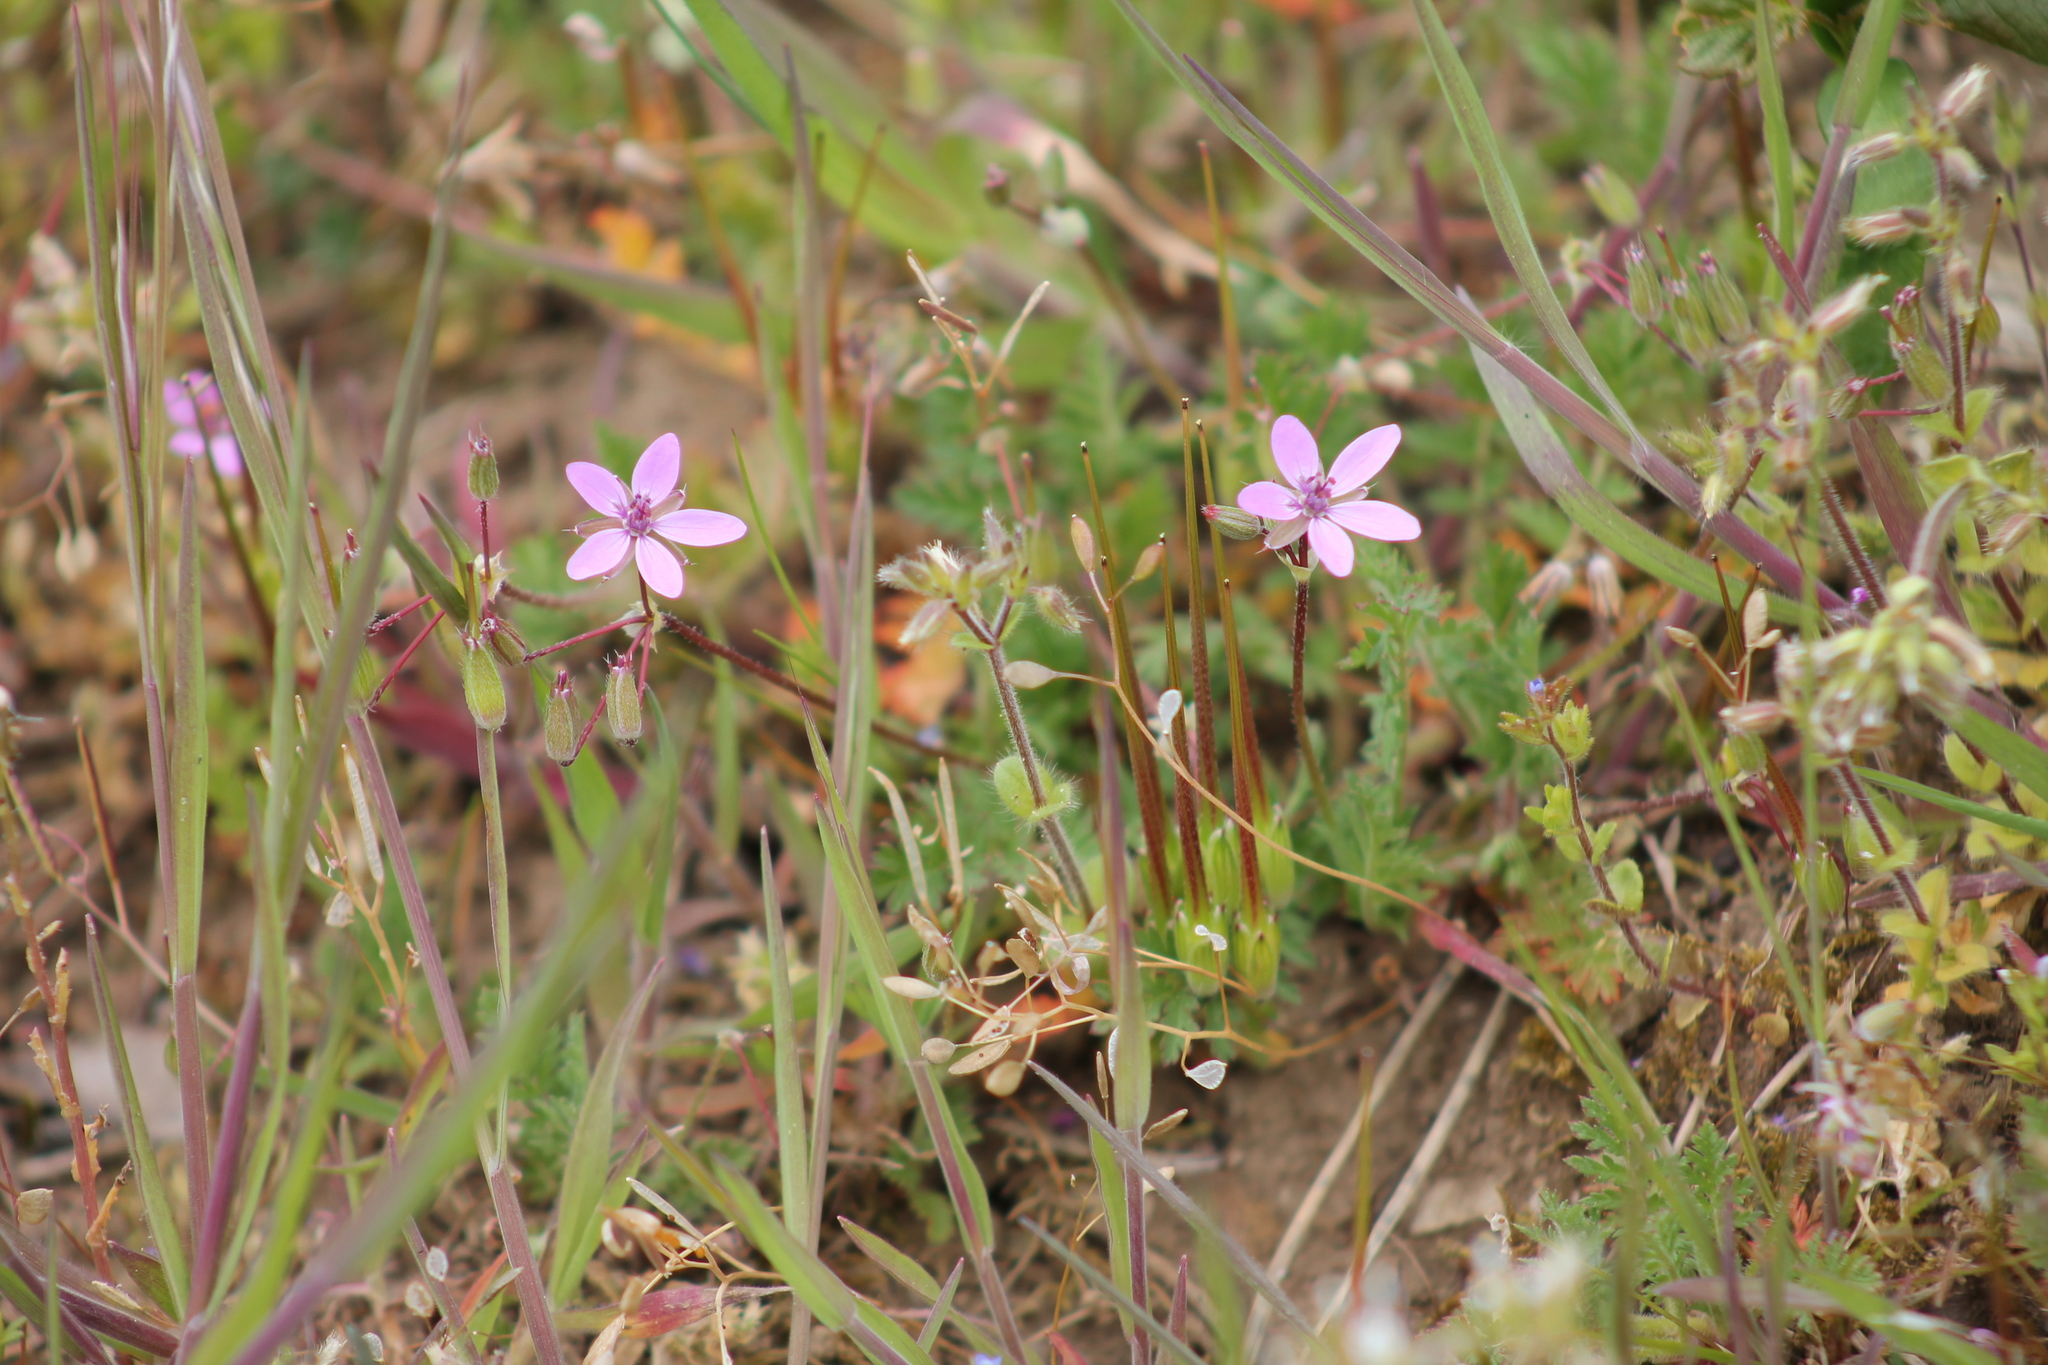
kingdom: Plantae
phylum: Tracheophyta
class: Magnoliopsida
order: Geraniales
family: Geraniaceae
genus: Erodium
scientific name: Erodium cicutarium
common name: Common stork's-bill
